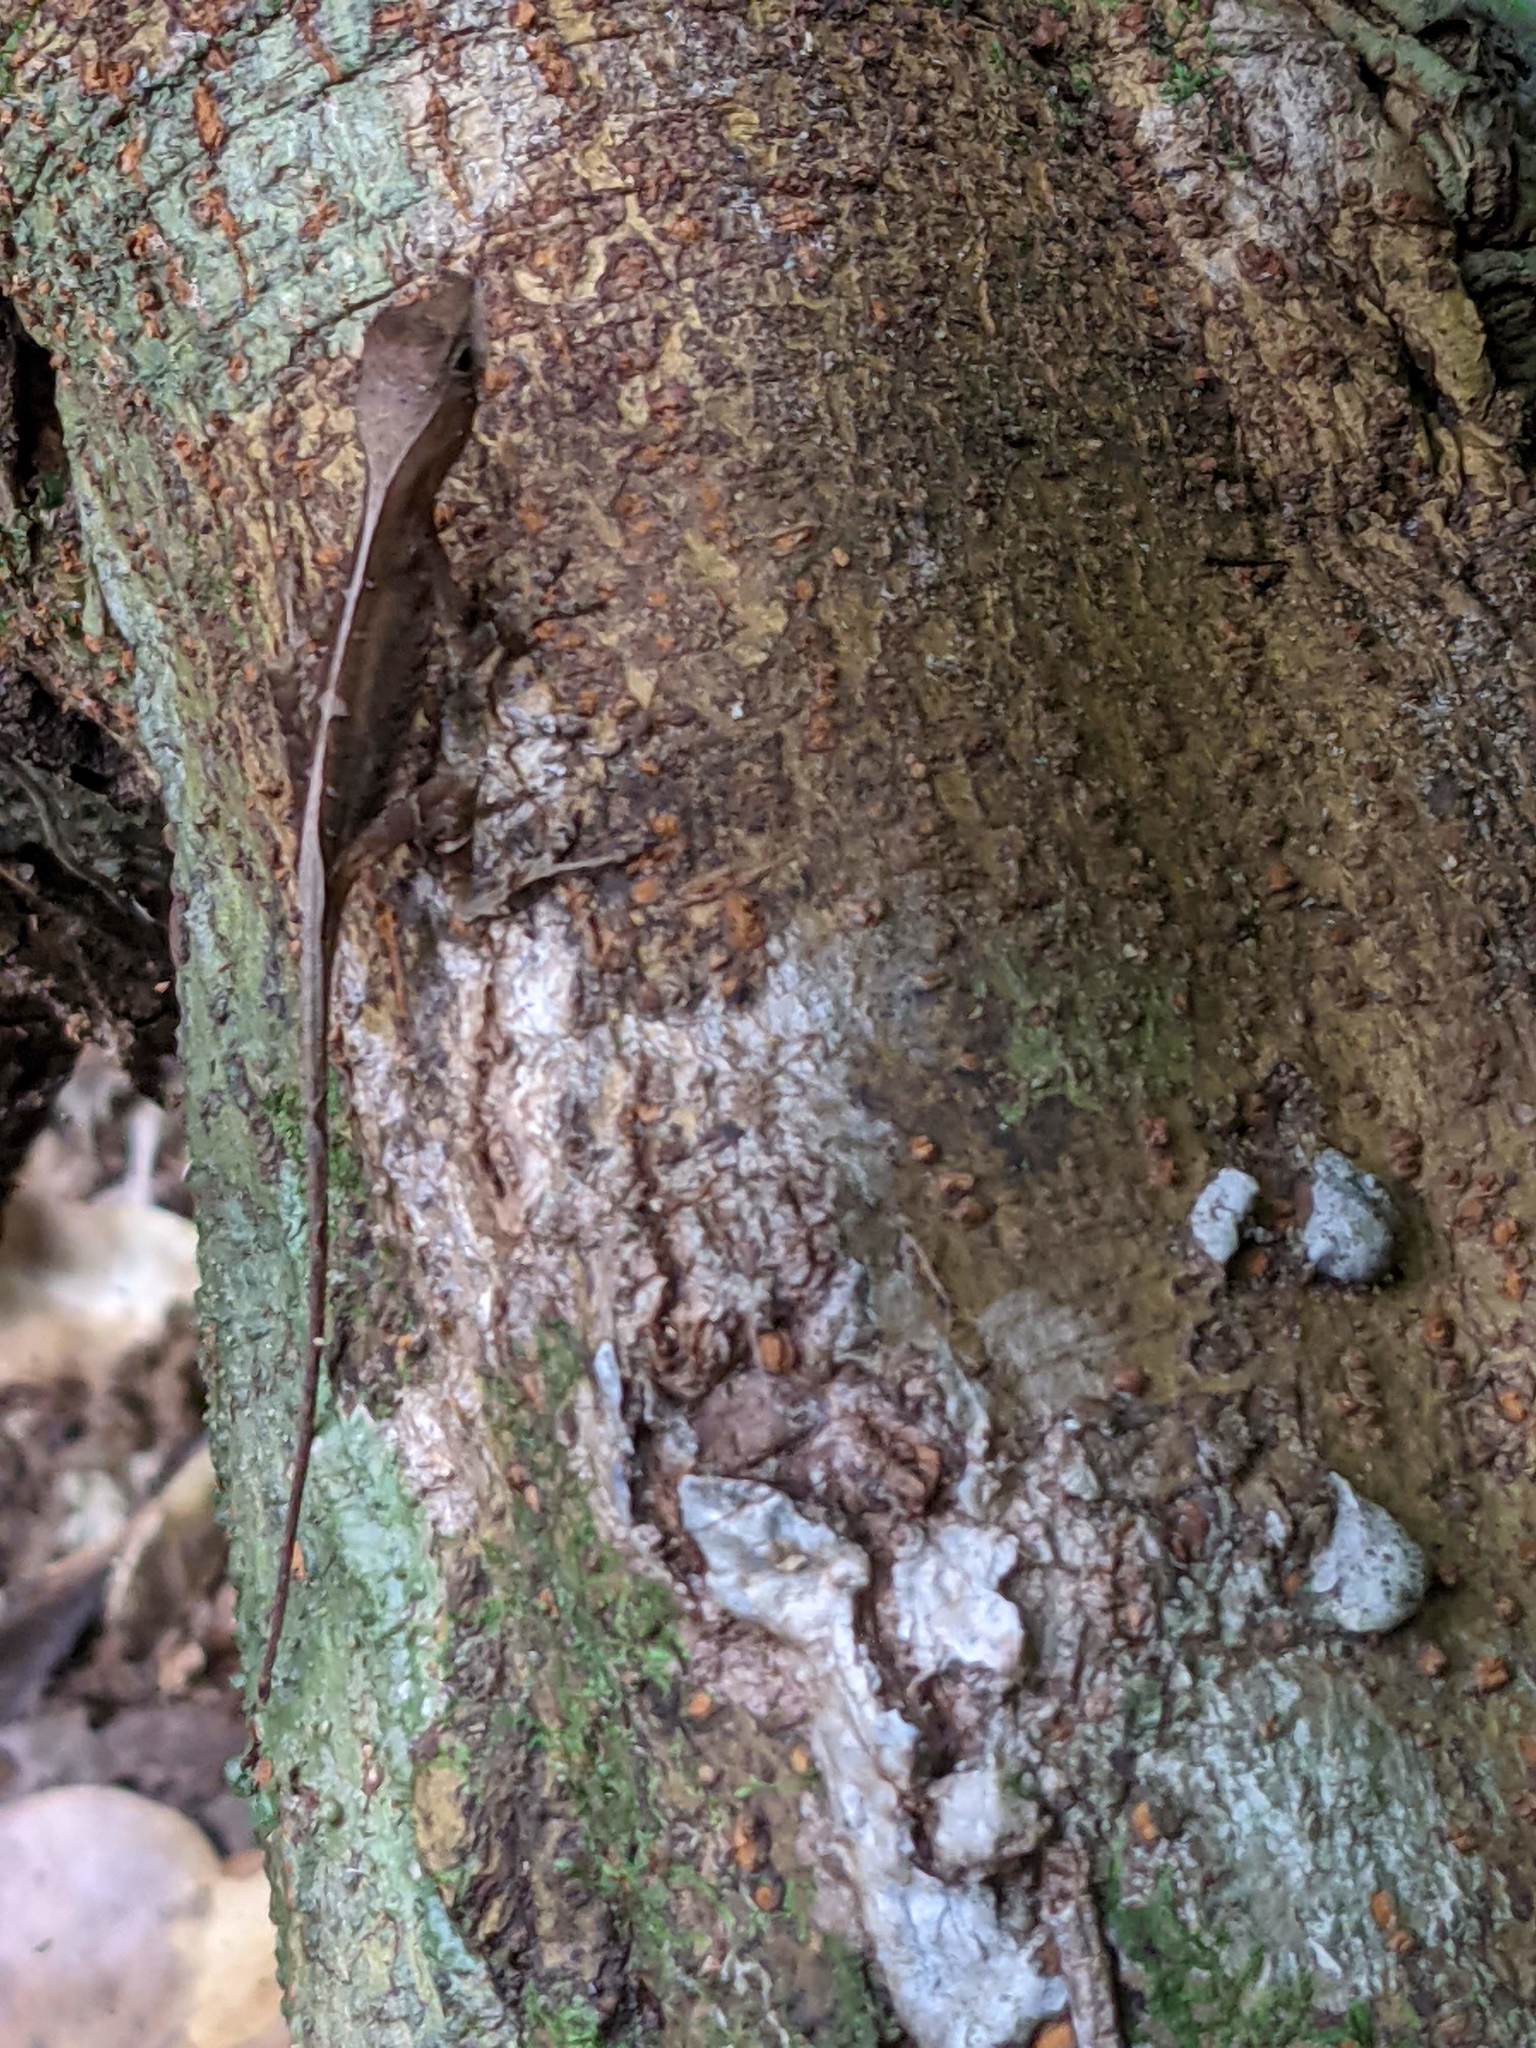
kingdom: Animalia
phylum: Chordata
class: Squamata
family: Dactyloidae
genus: Anolis
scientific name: Anolis chrysolepis
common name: Goldenscale anole
